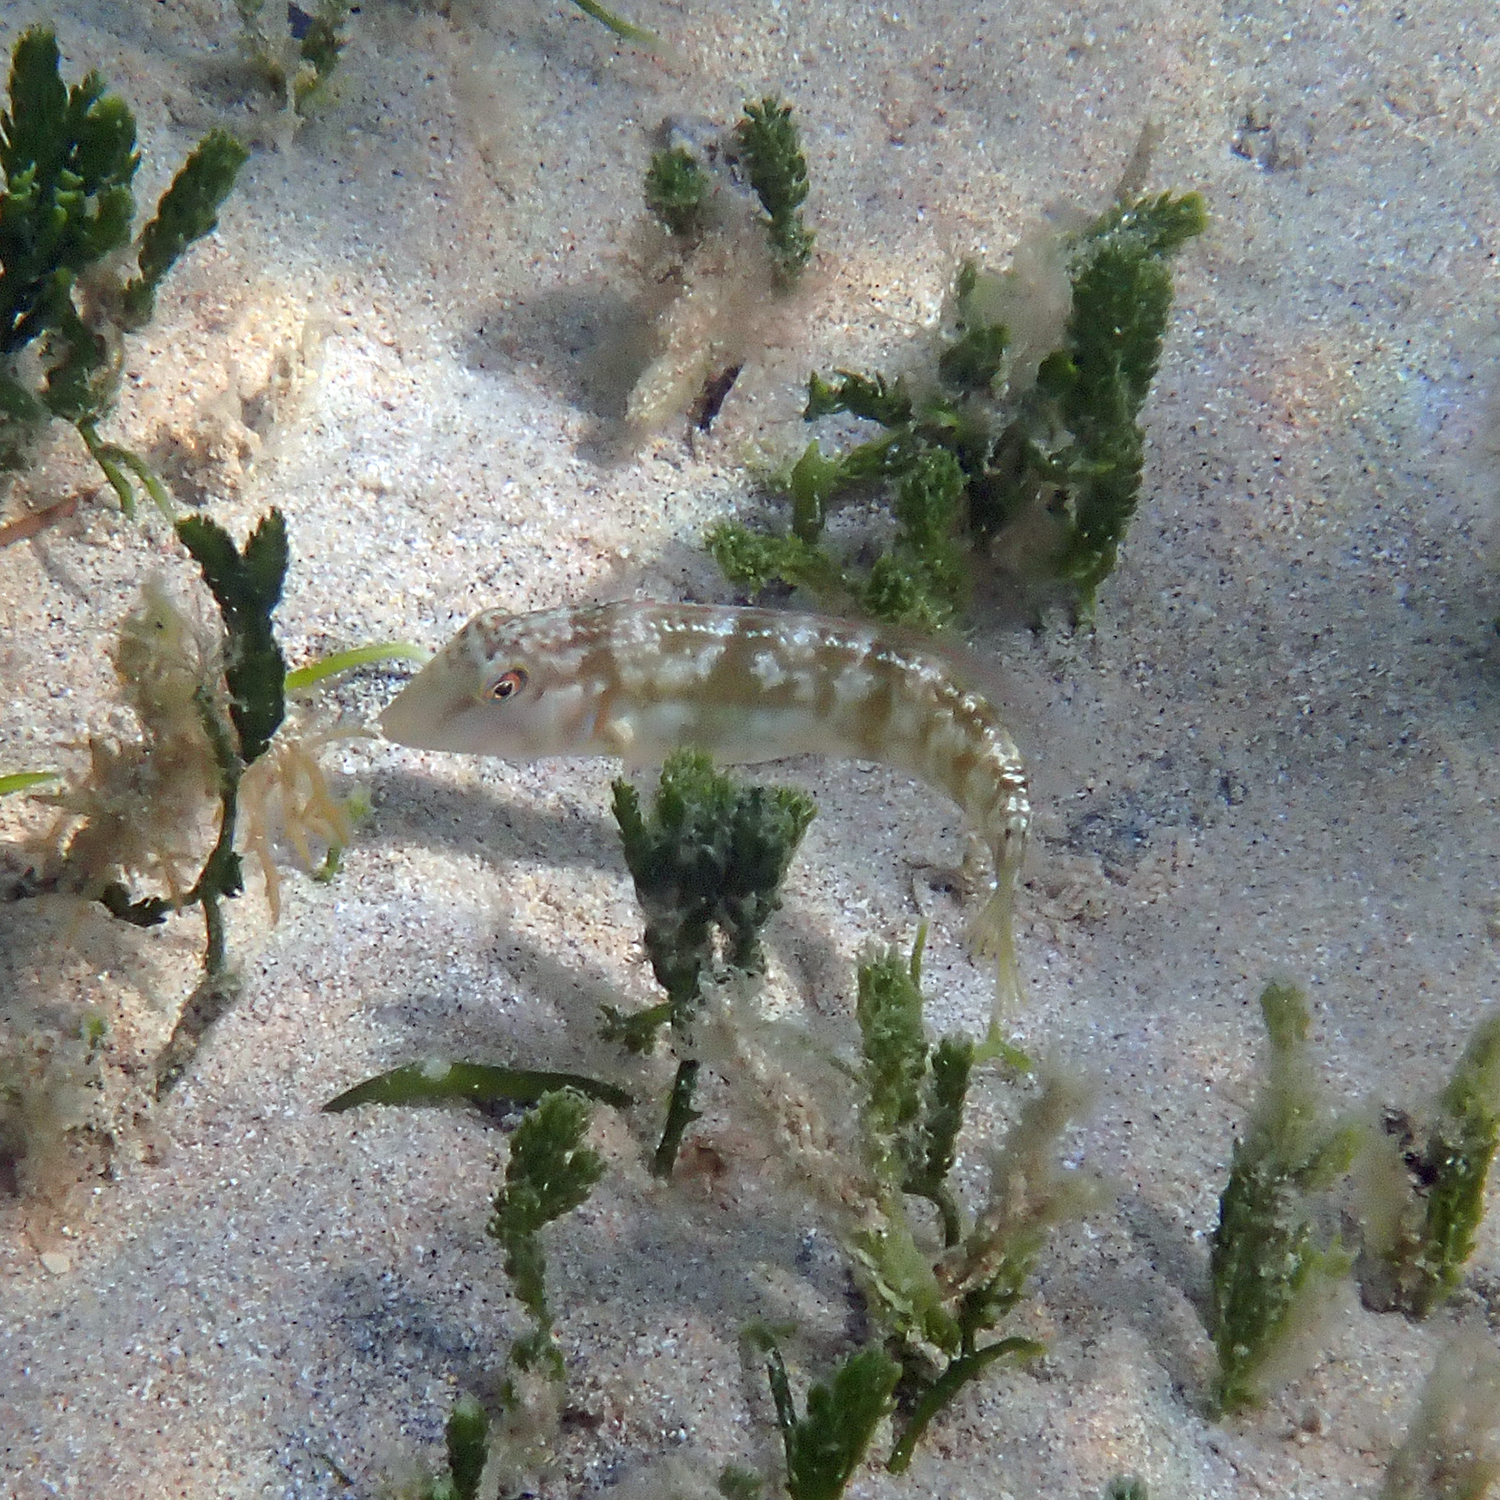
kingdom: Animalia
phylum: Chordata
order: Perciformes
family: Labridae
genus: Cymolutes
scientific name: Cymolutes praetextatus
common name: Knife razorfish
